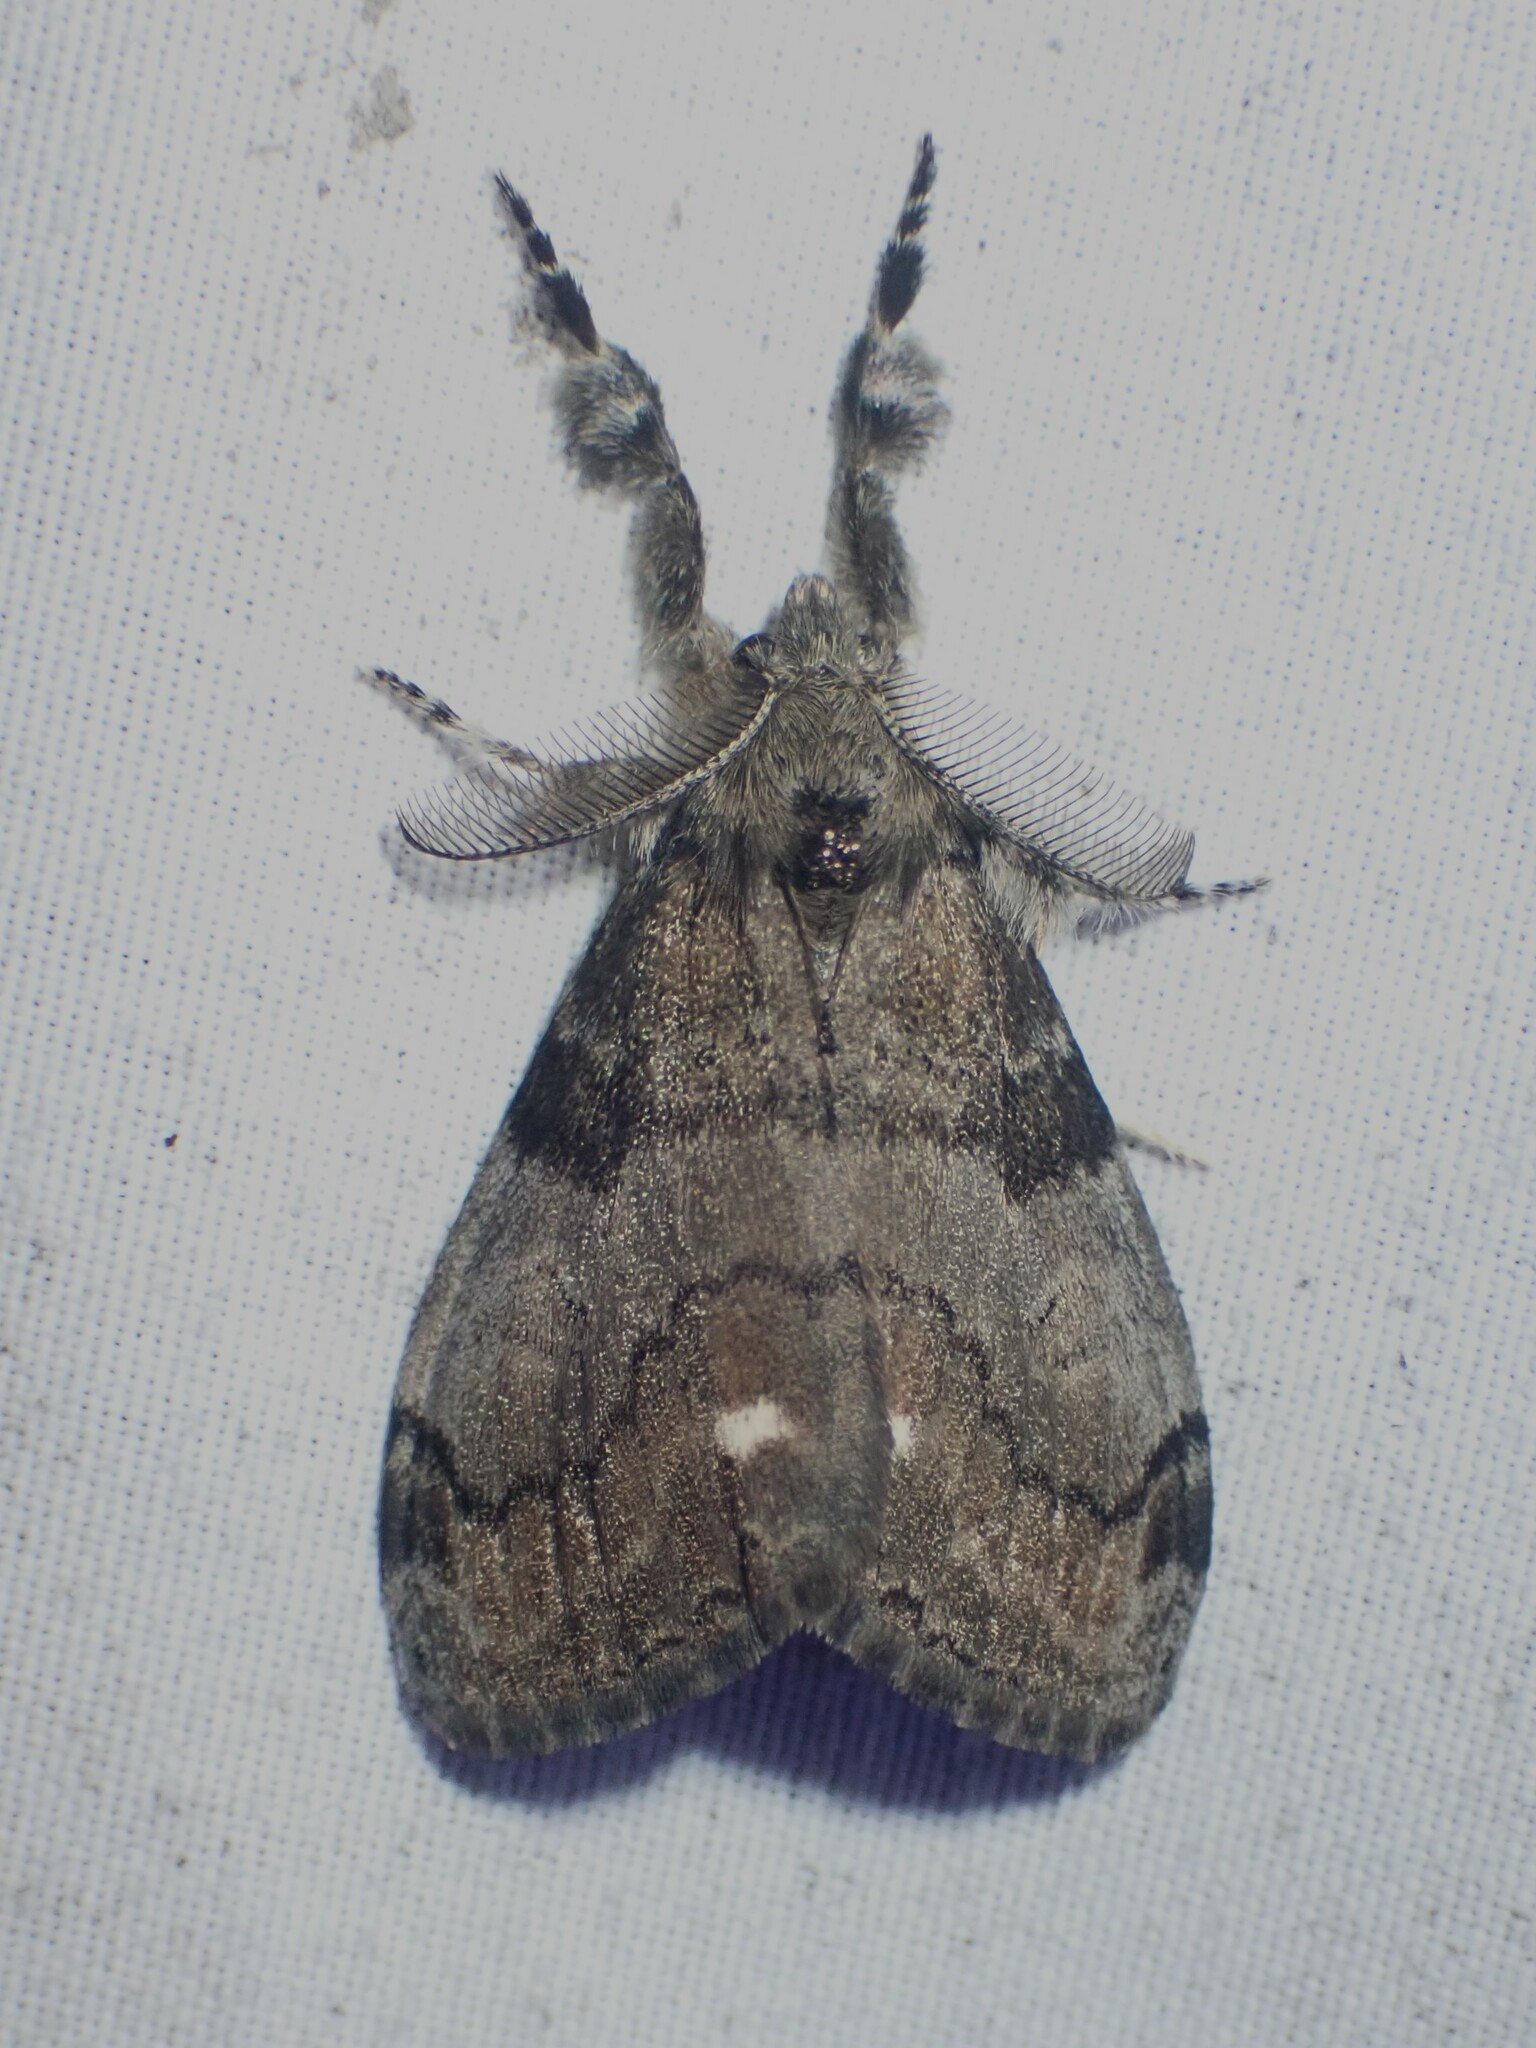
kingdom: Animalia
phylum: Arthropoda
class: Insecta
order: Lepidoptera
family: Erebidae
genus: Orgyia
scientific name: Orgyia leucostigma
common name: White-marked tussock moth
